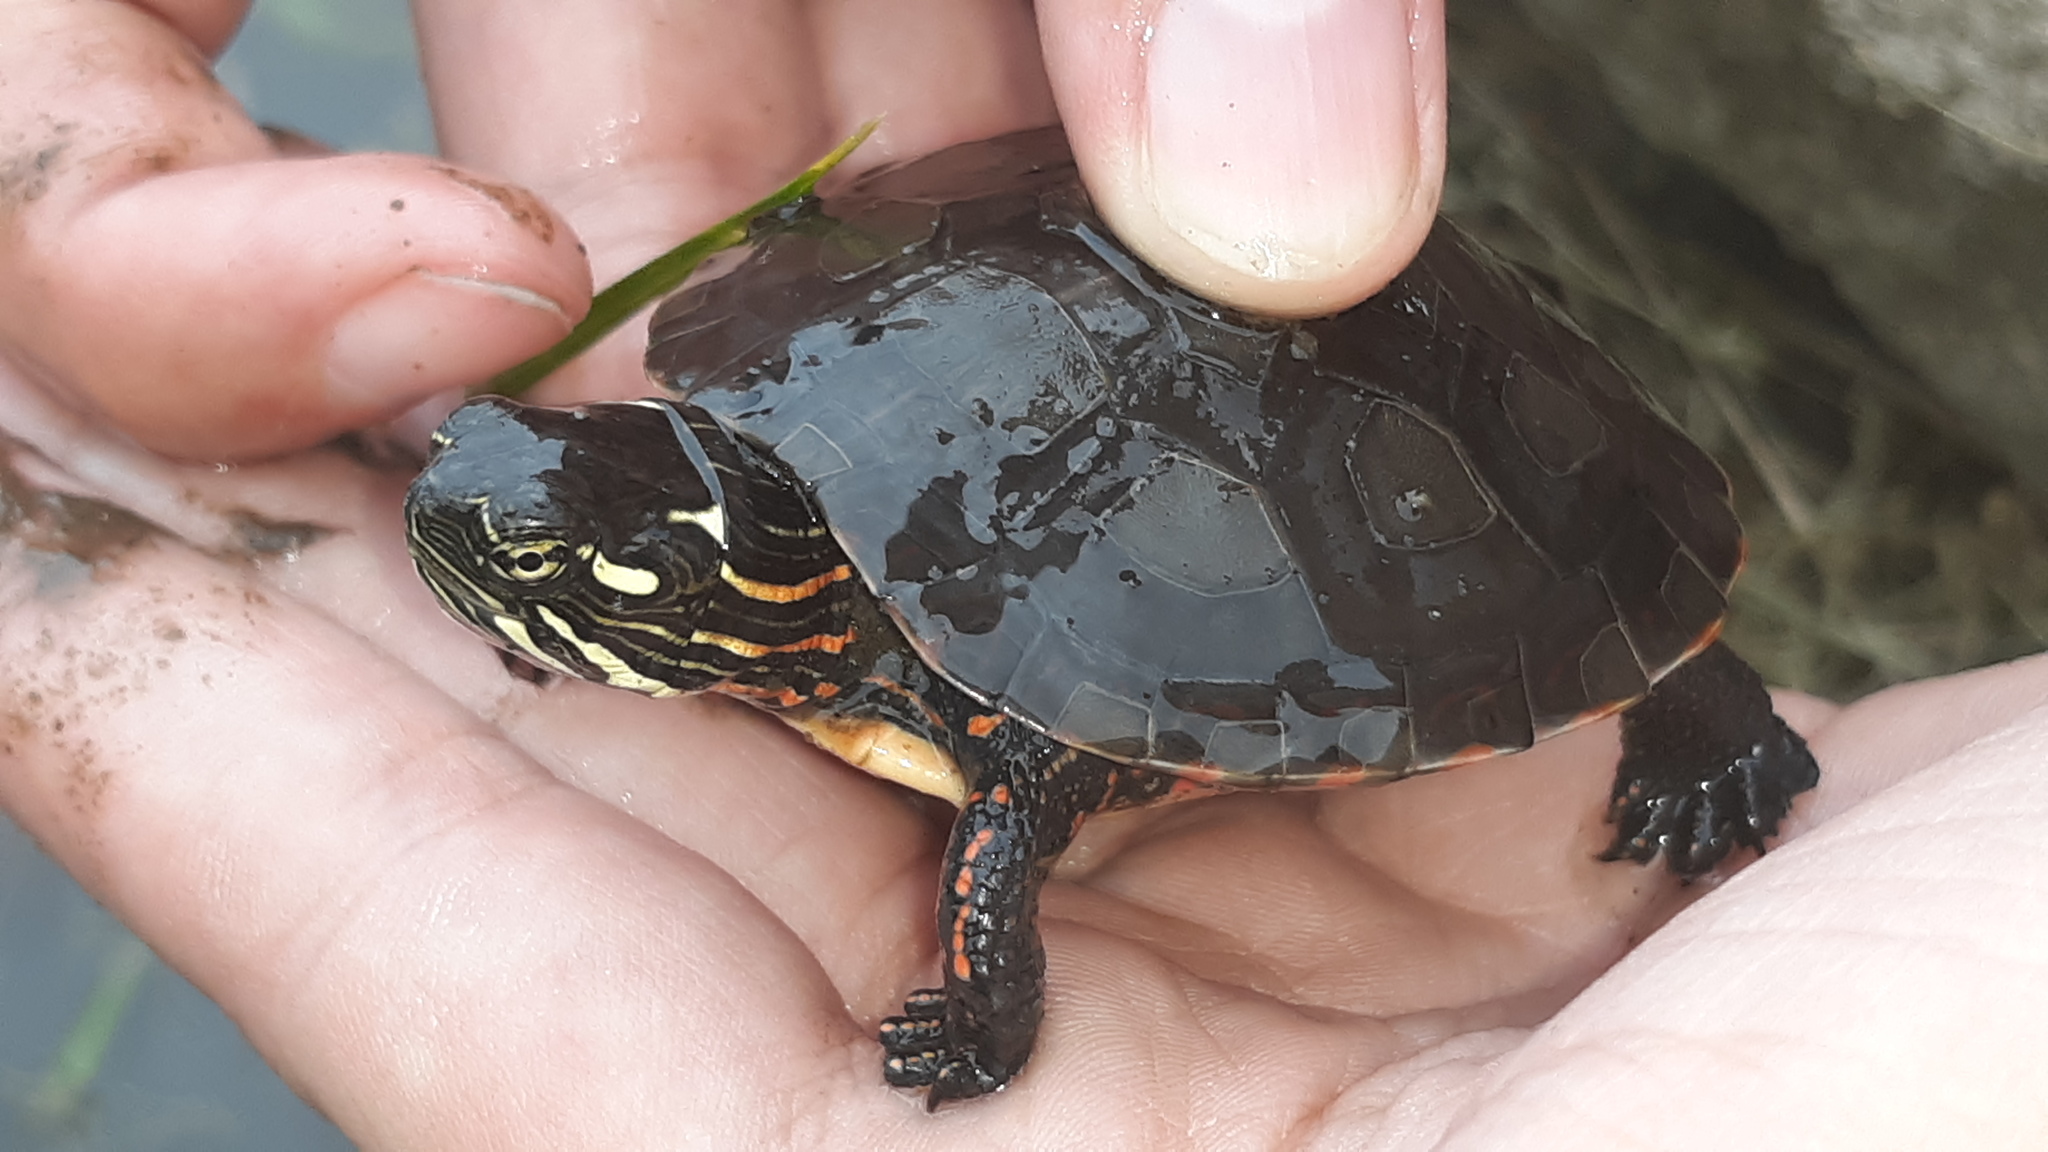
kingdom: Animalia
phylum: Chordata
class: Testudines
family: Emydidae
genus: Chrysemys
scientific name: Chrysemys picta
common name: Painted turtle
